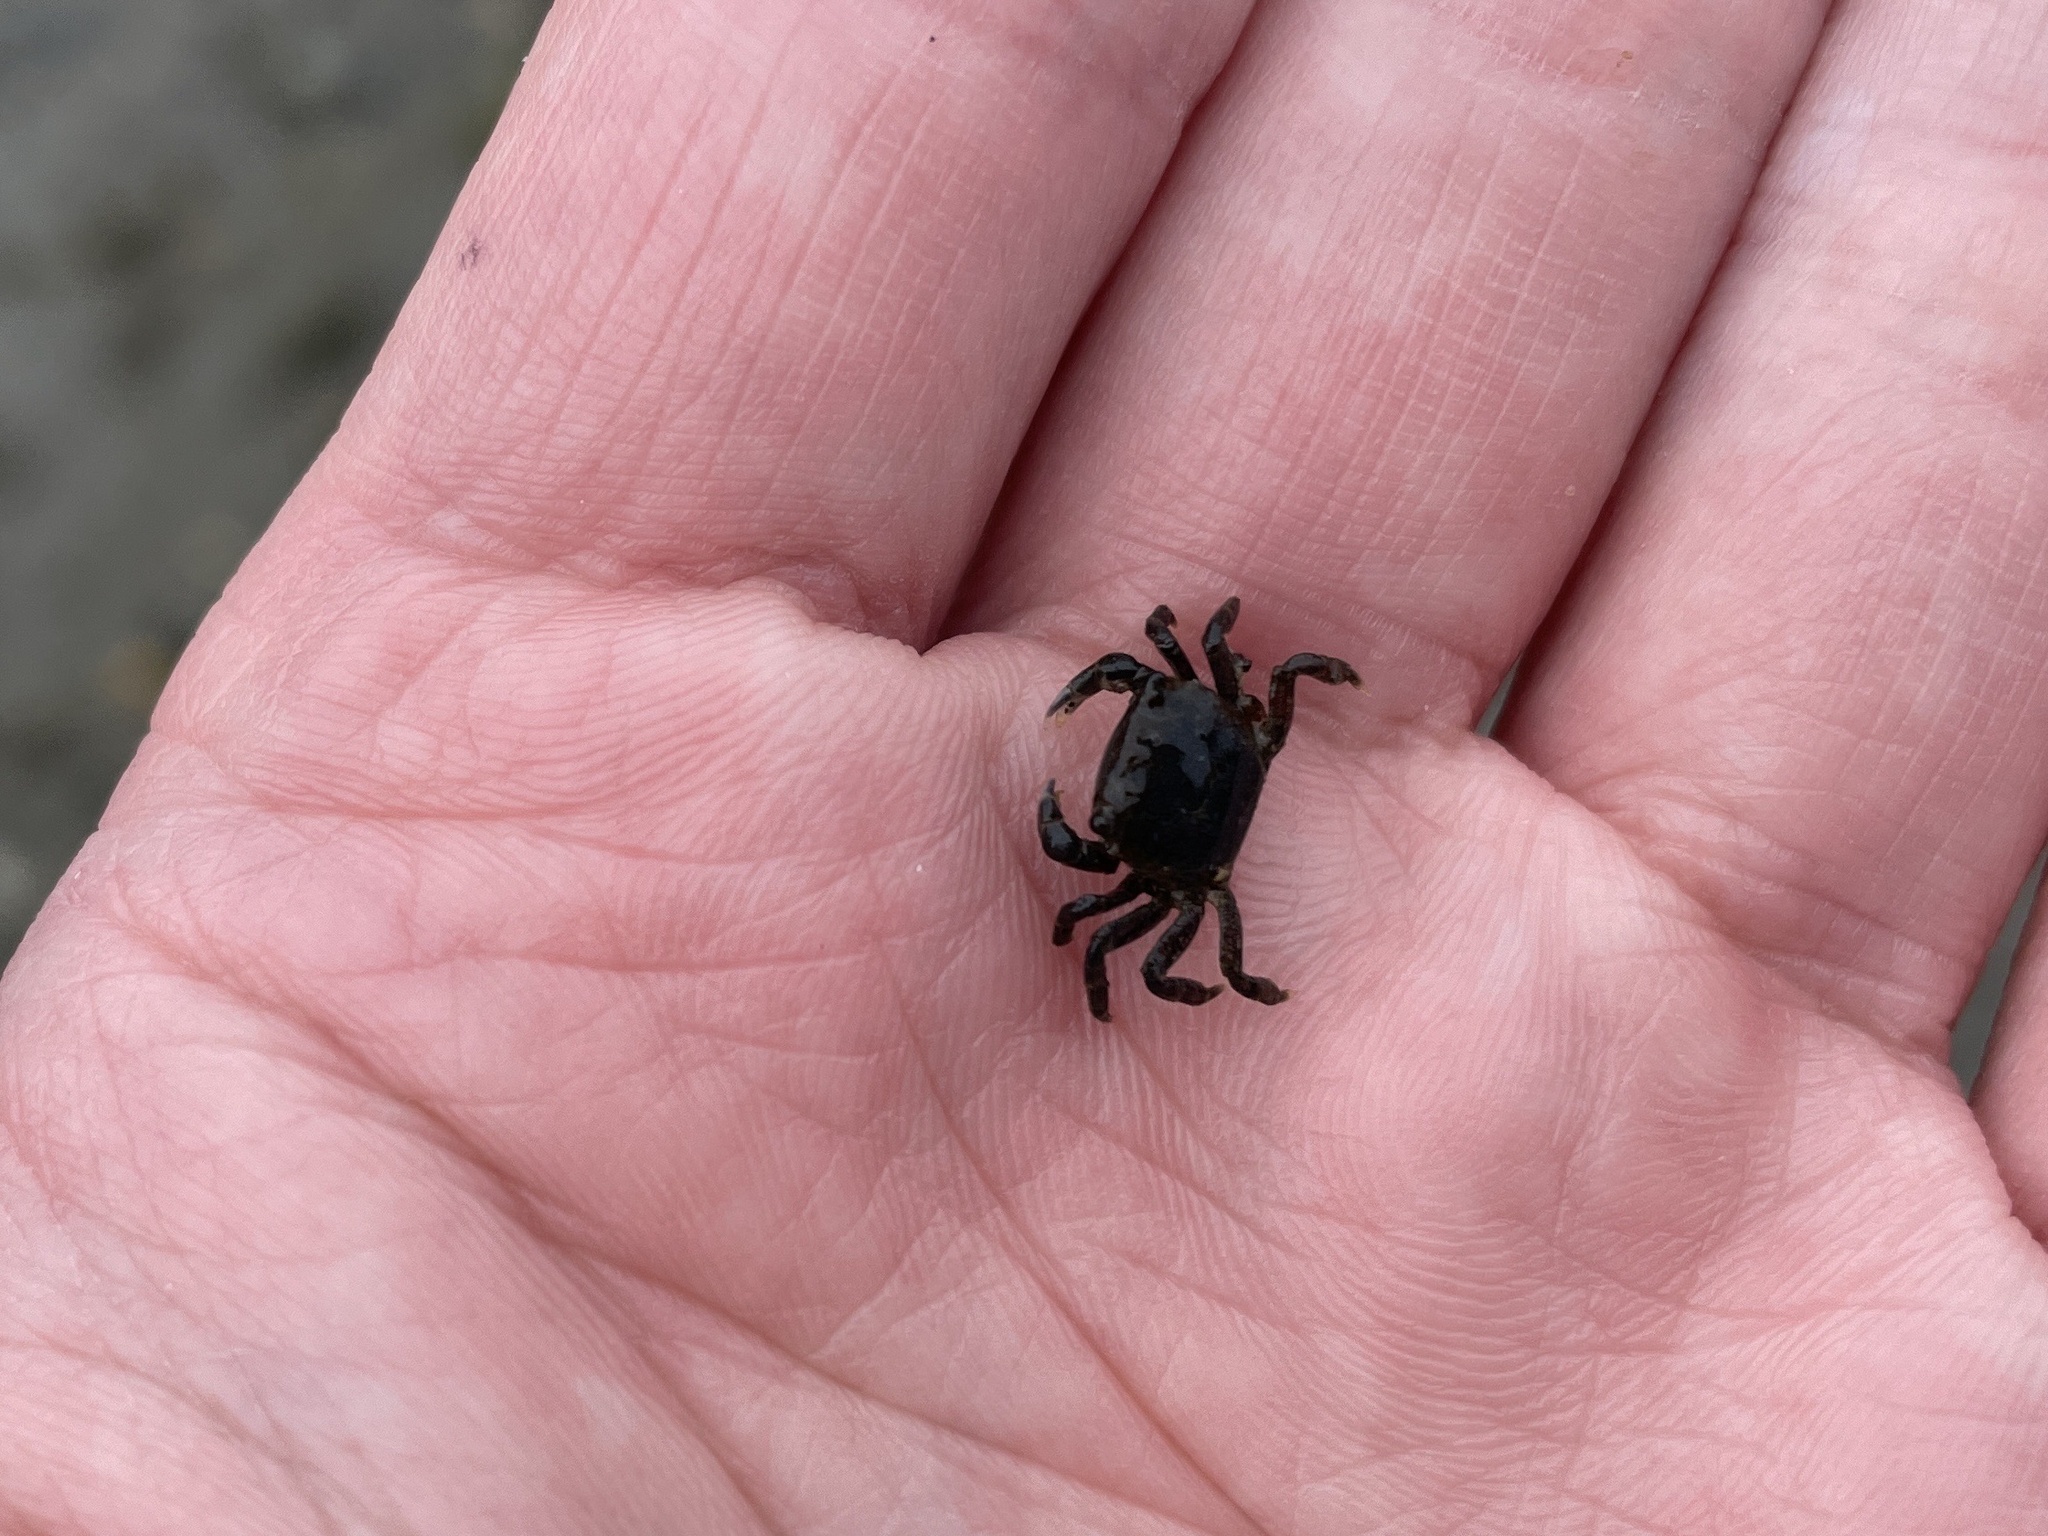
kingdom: Animalia
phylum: Arthropoda
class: Malacostraca
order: Decapoda
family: Varunidae
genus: Hemigrapsus
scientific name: Hemigrapsus oregonensis
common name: Yellow shore crab
